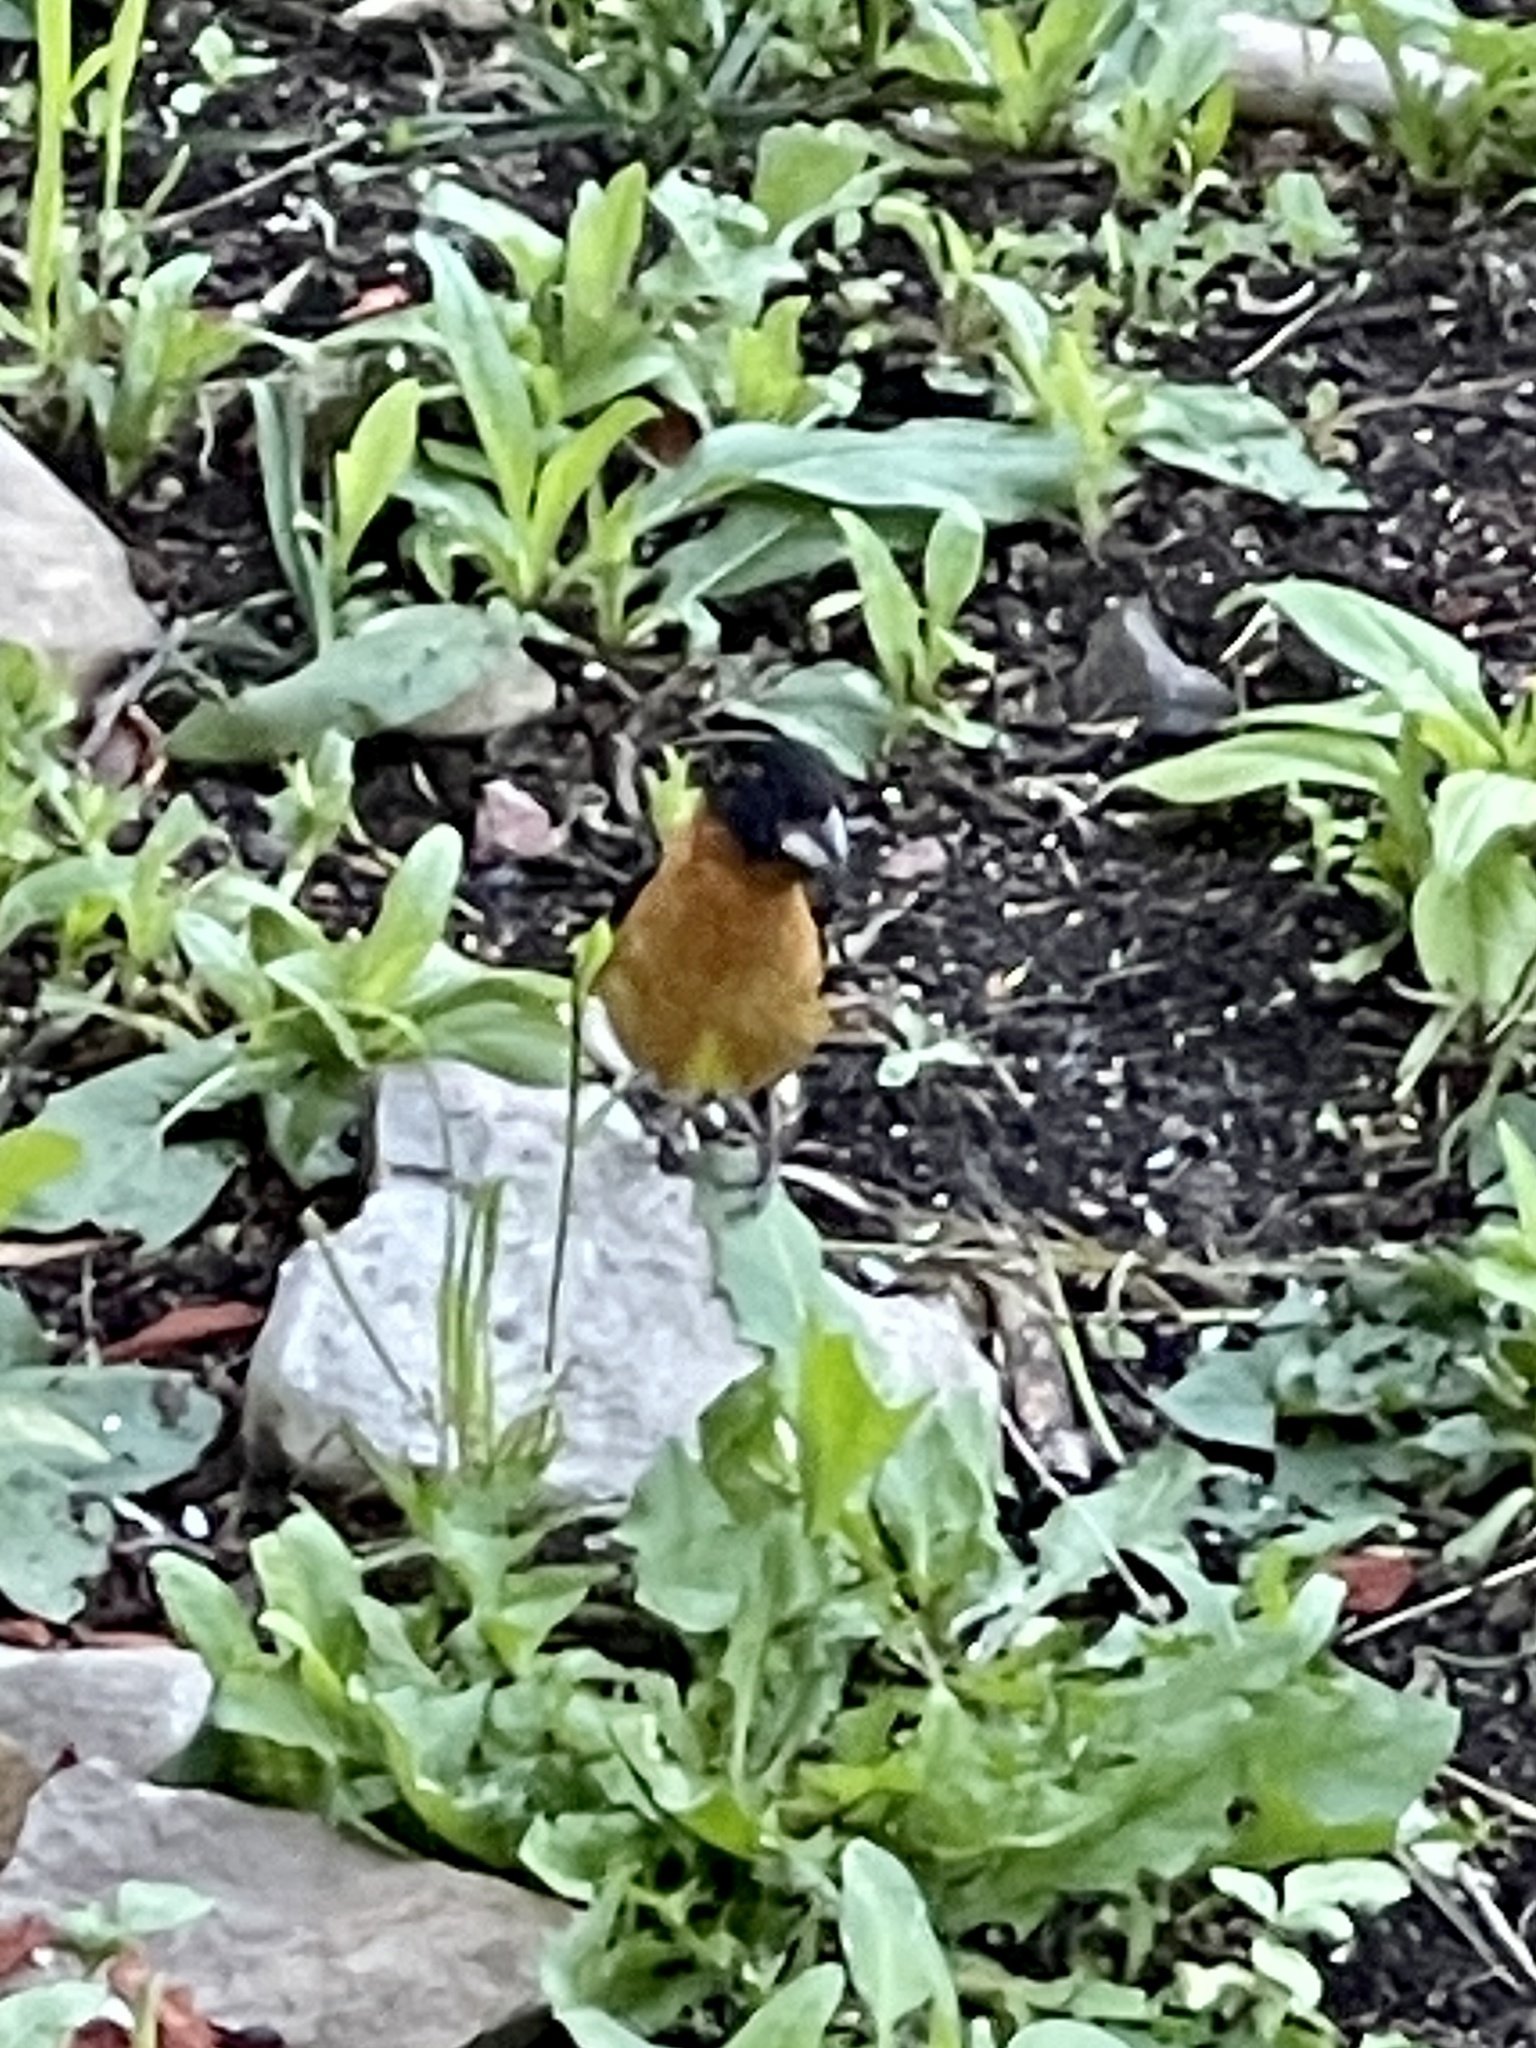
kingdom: Animalia
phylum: Chordata
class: Aves
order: Passeriformes
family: Cardinalidae
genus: Pheucticus
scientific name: Pheucticus melanocephalus
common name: Black-headed grosbeak
